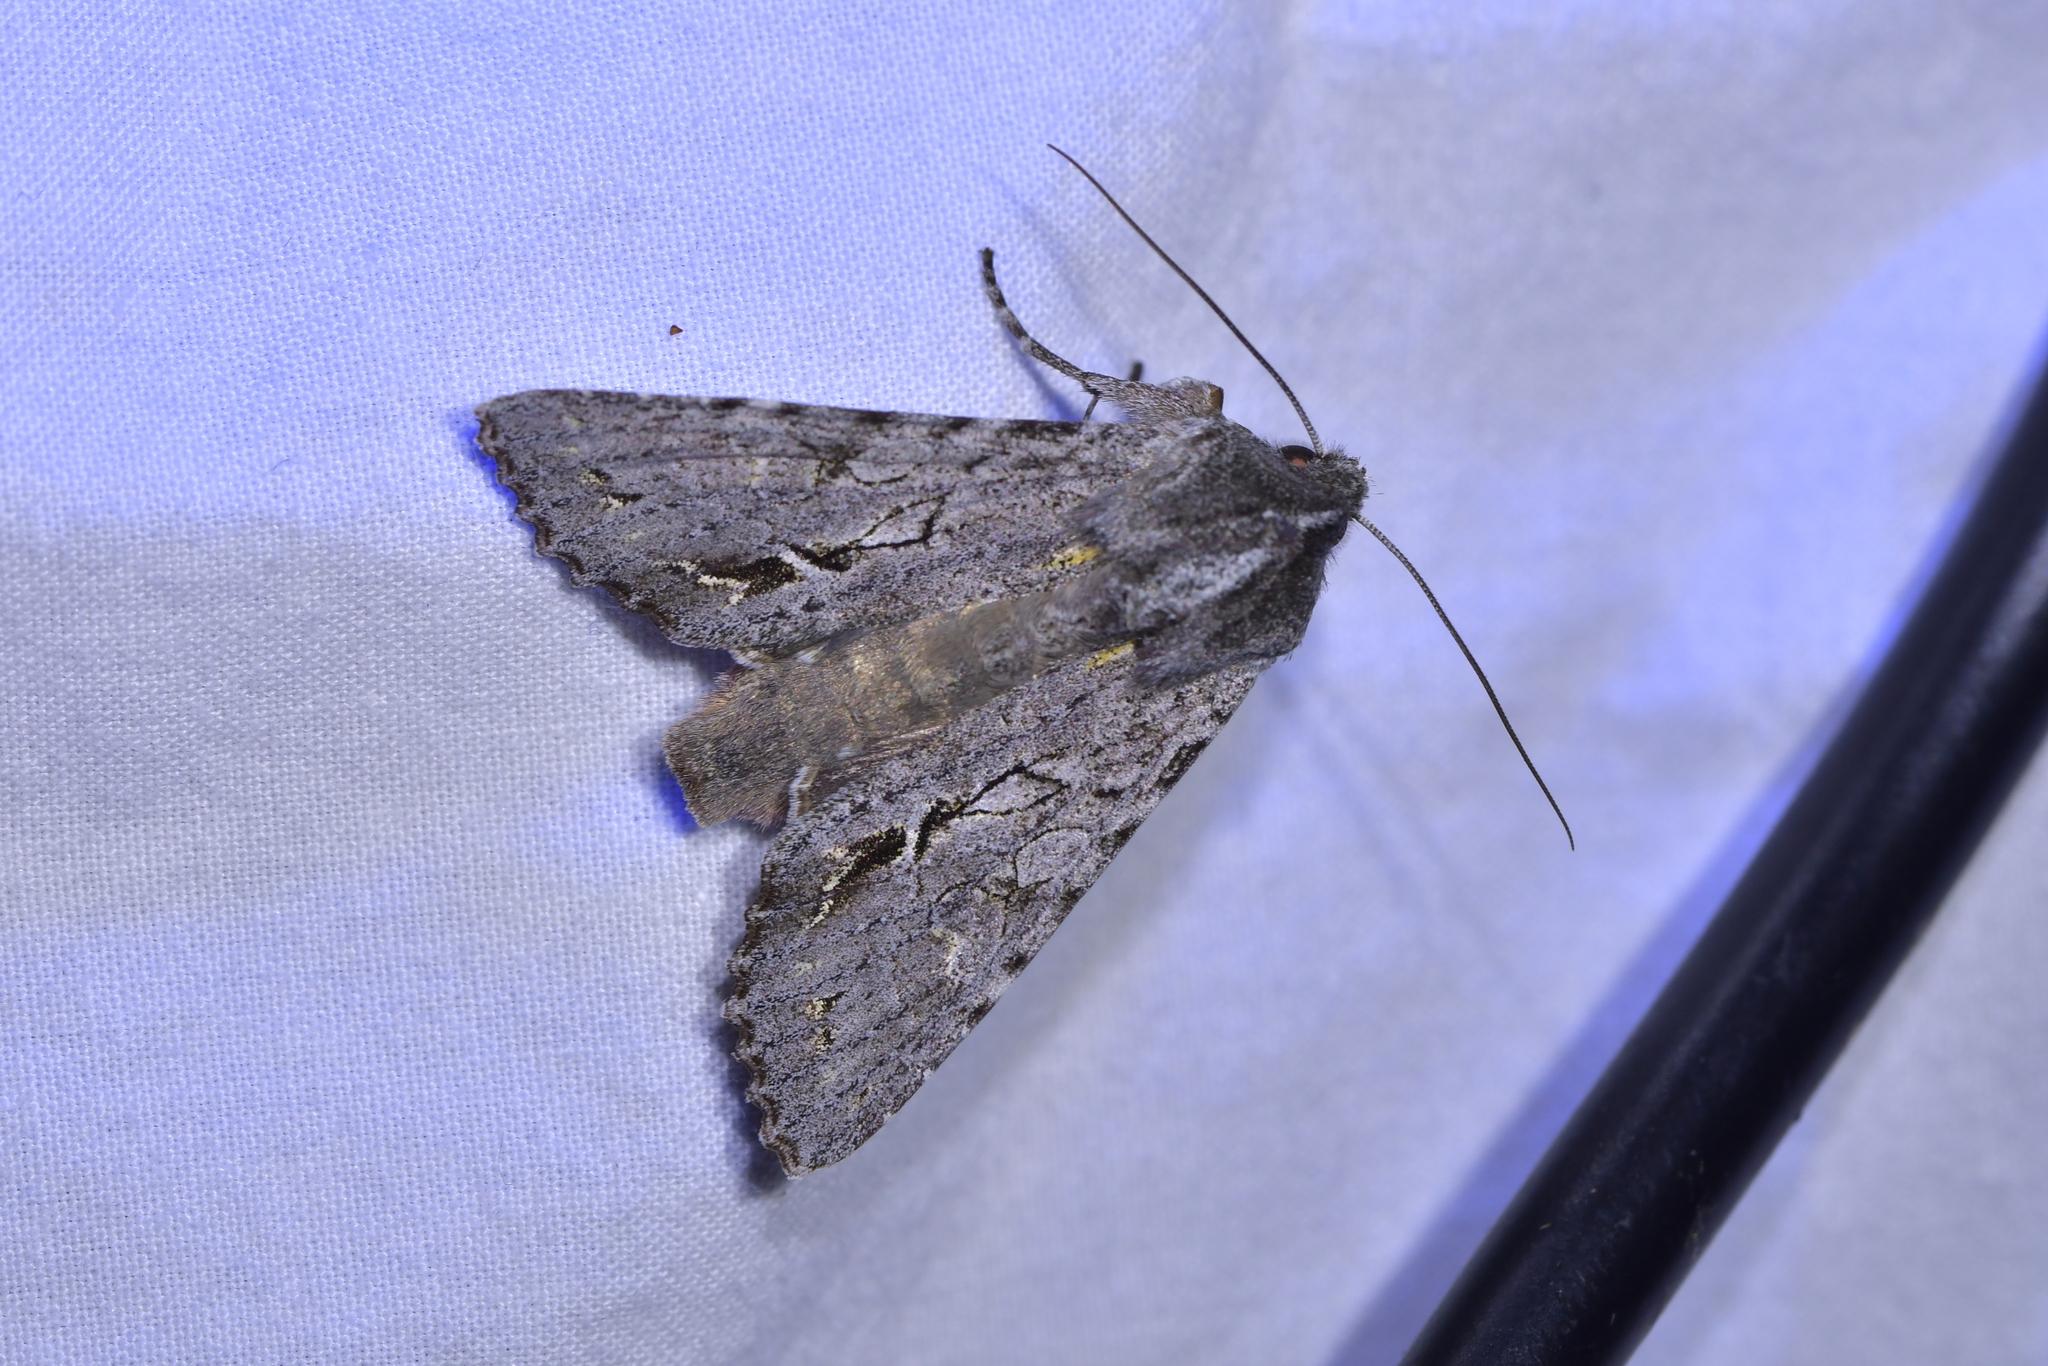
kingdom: Animalia
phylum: Arthropoda
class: Insecta
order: Lepidoptera
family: Noctuidae
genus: Ichneutica
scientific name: Ichneutica
